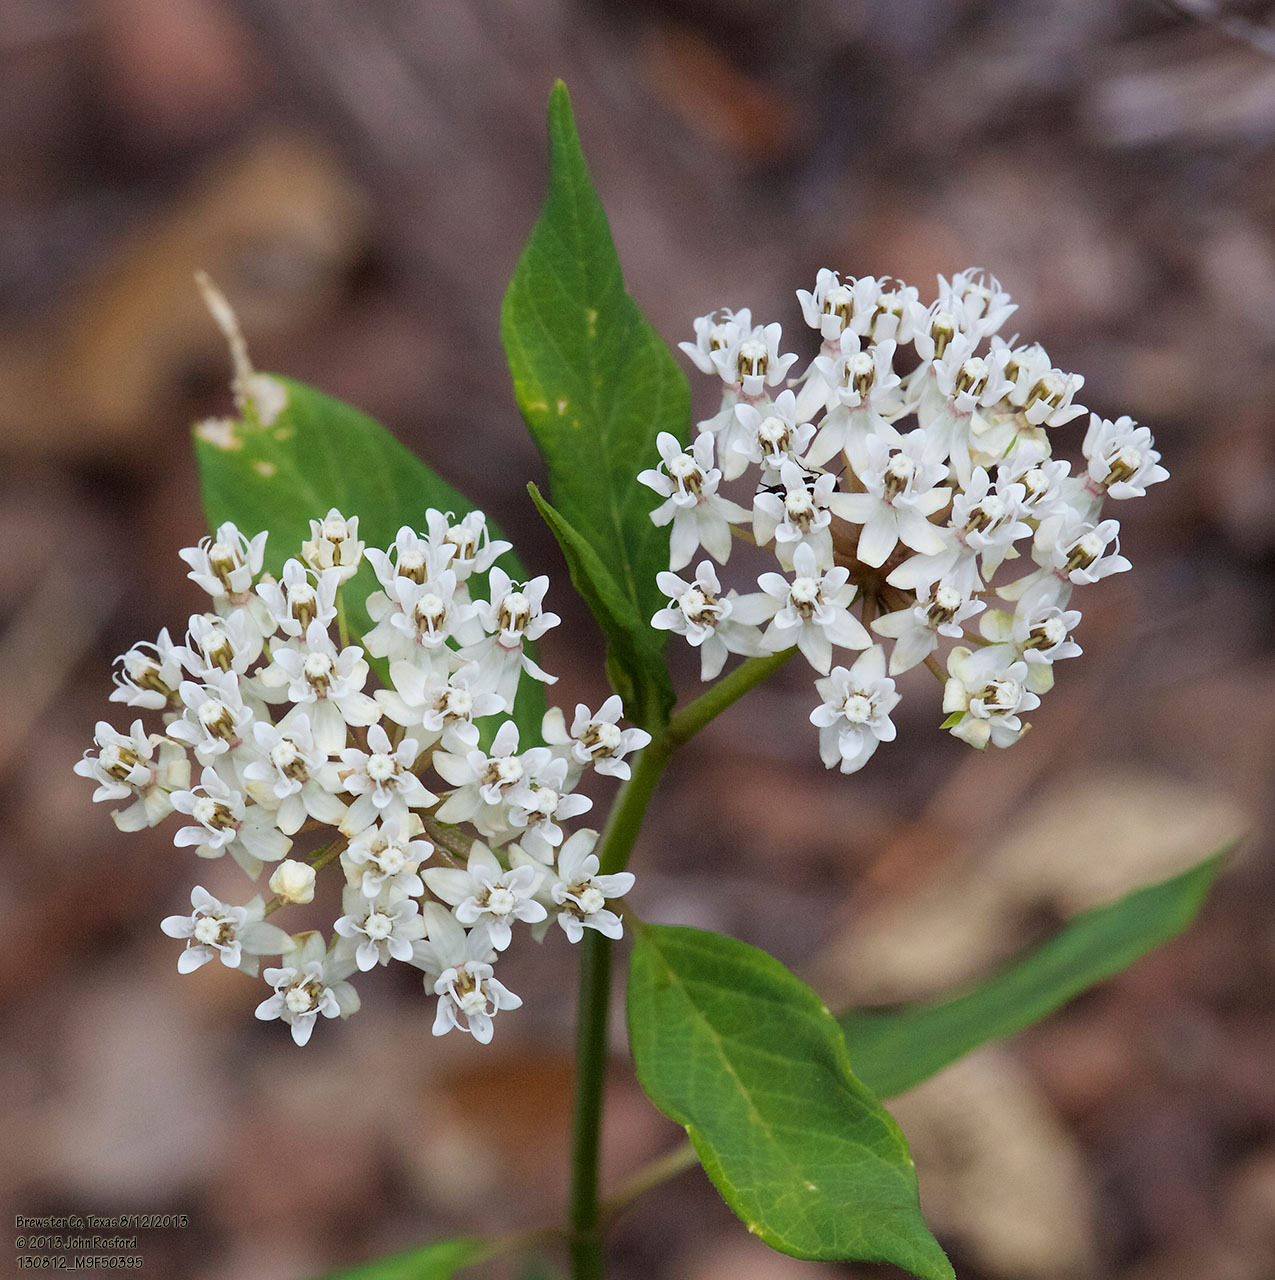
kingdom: Plantae
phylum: Tracheophyta
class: Magnoliopsida
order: Gentianales
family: Apocynaceae
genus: Asclepias
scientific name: Asclepias texana
